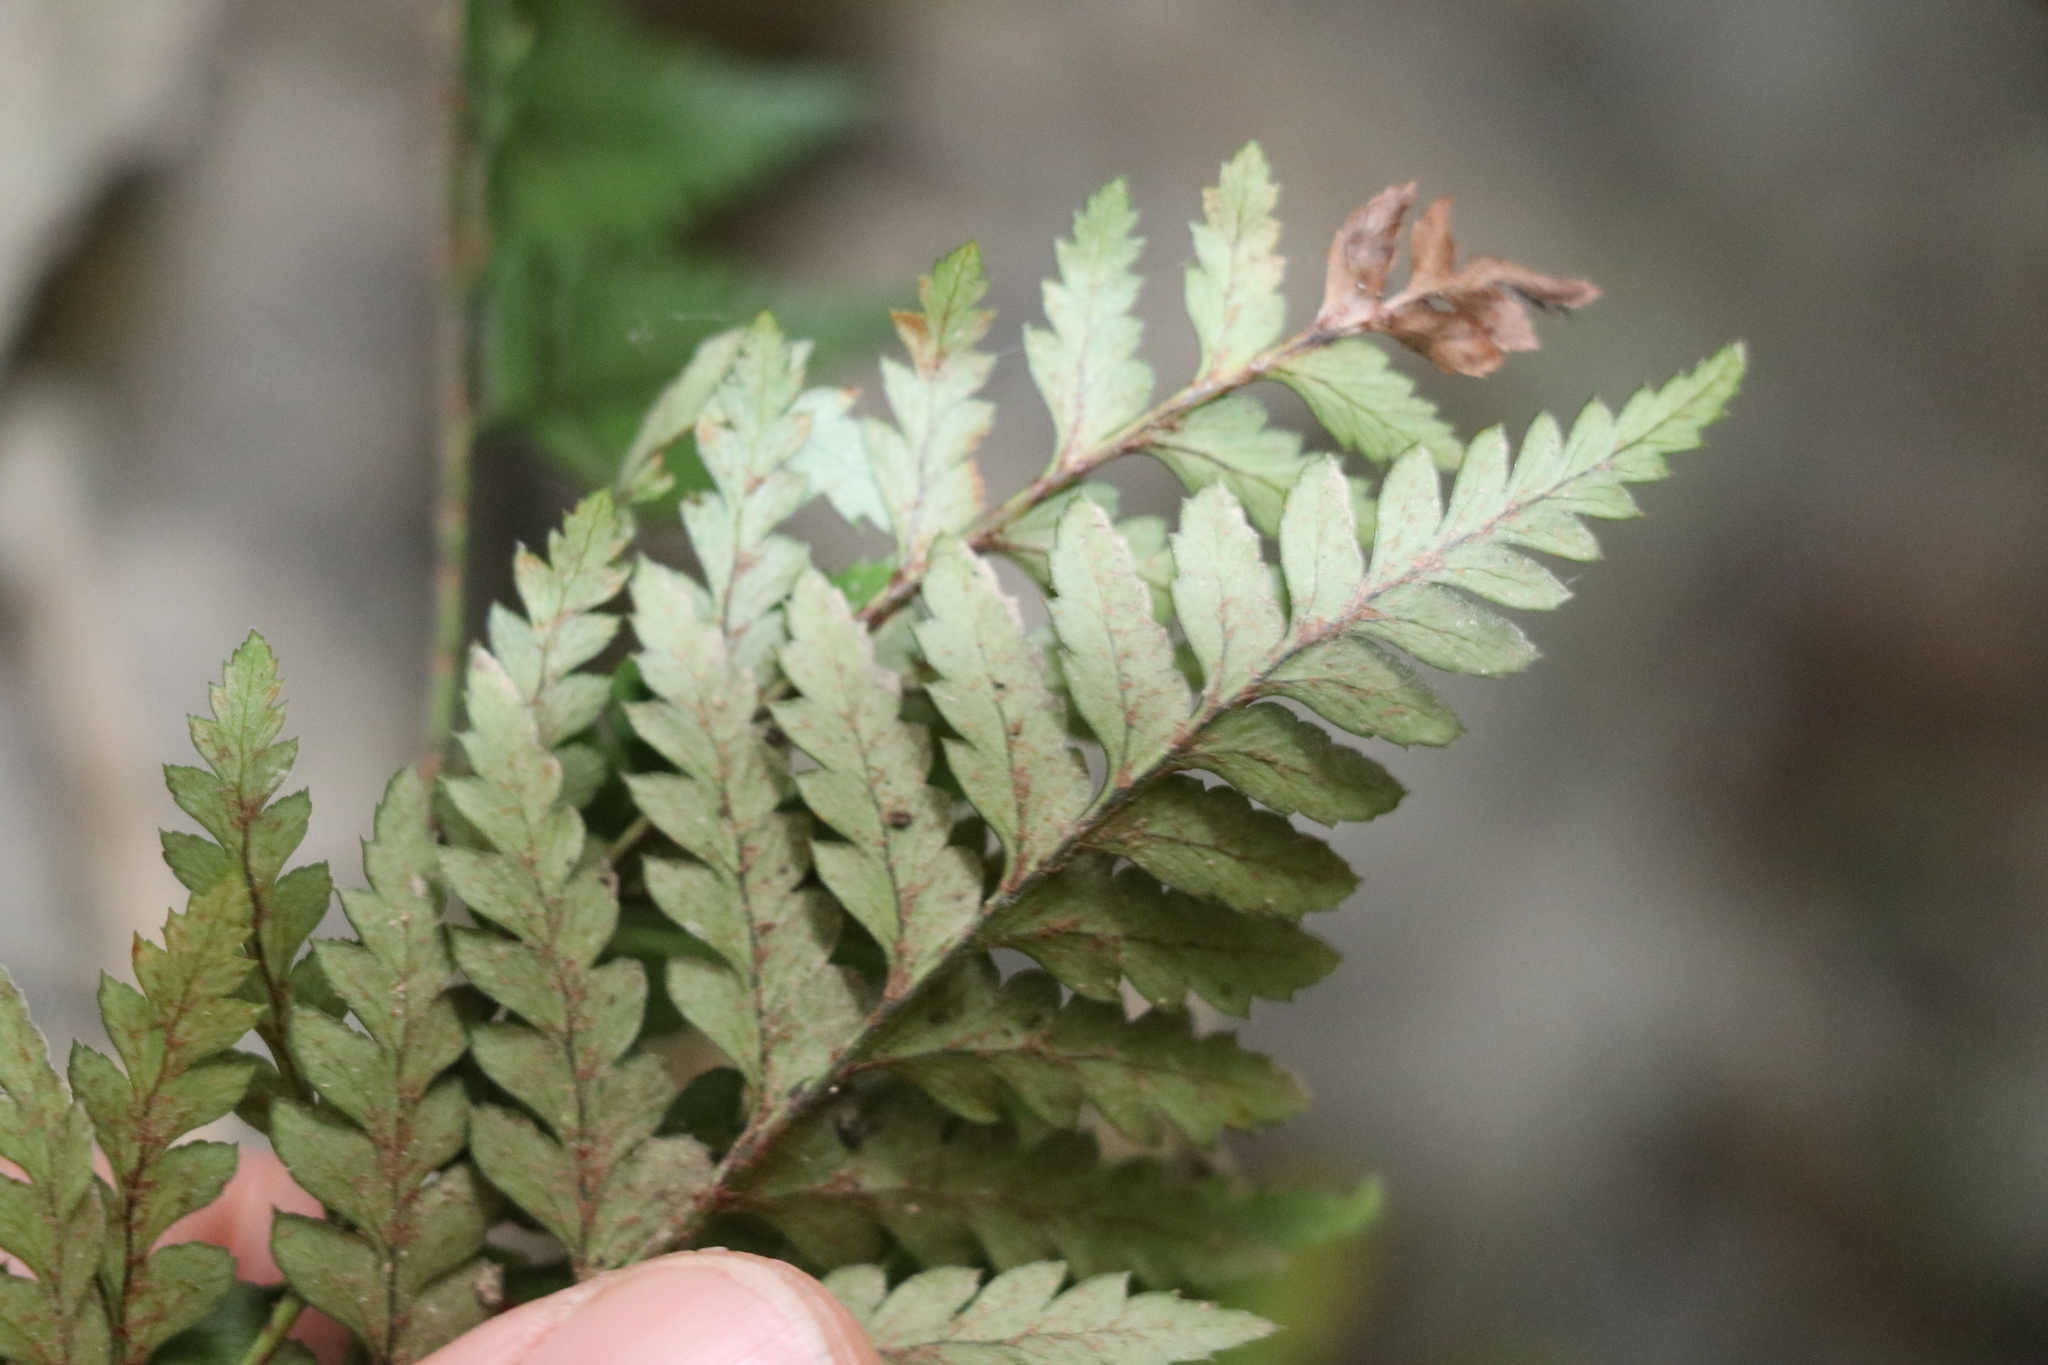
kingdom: Plantae
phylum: Tracheophyta
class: Polypodiopsida
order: Polypodiales
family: Dryopteridaceae
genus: Polystichum
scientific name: Polystichum oculatum
